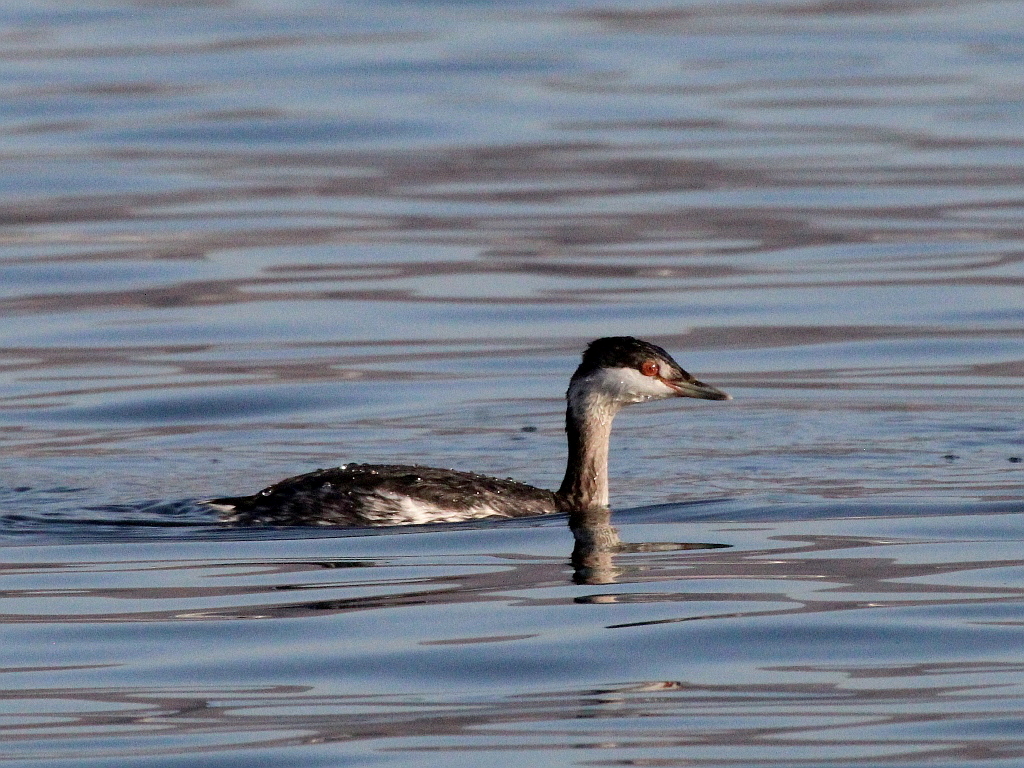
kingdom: Animalia
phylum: Chordata
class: Aves
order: Podicipediformes
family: Podicipedidae
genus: Podiceps
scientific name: Podiceps auritus
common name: Horned grebe
